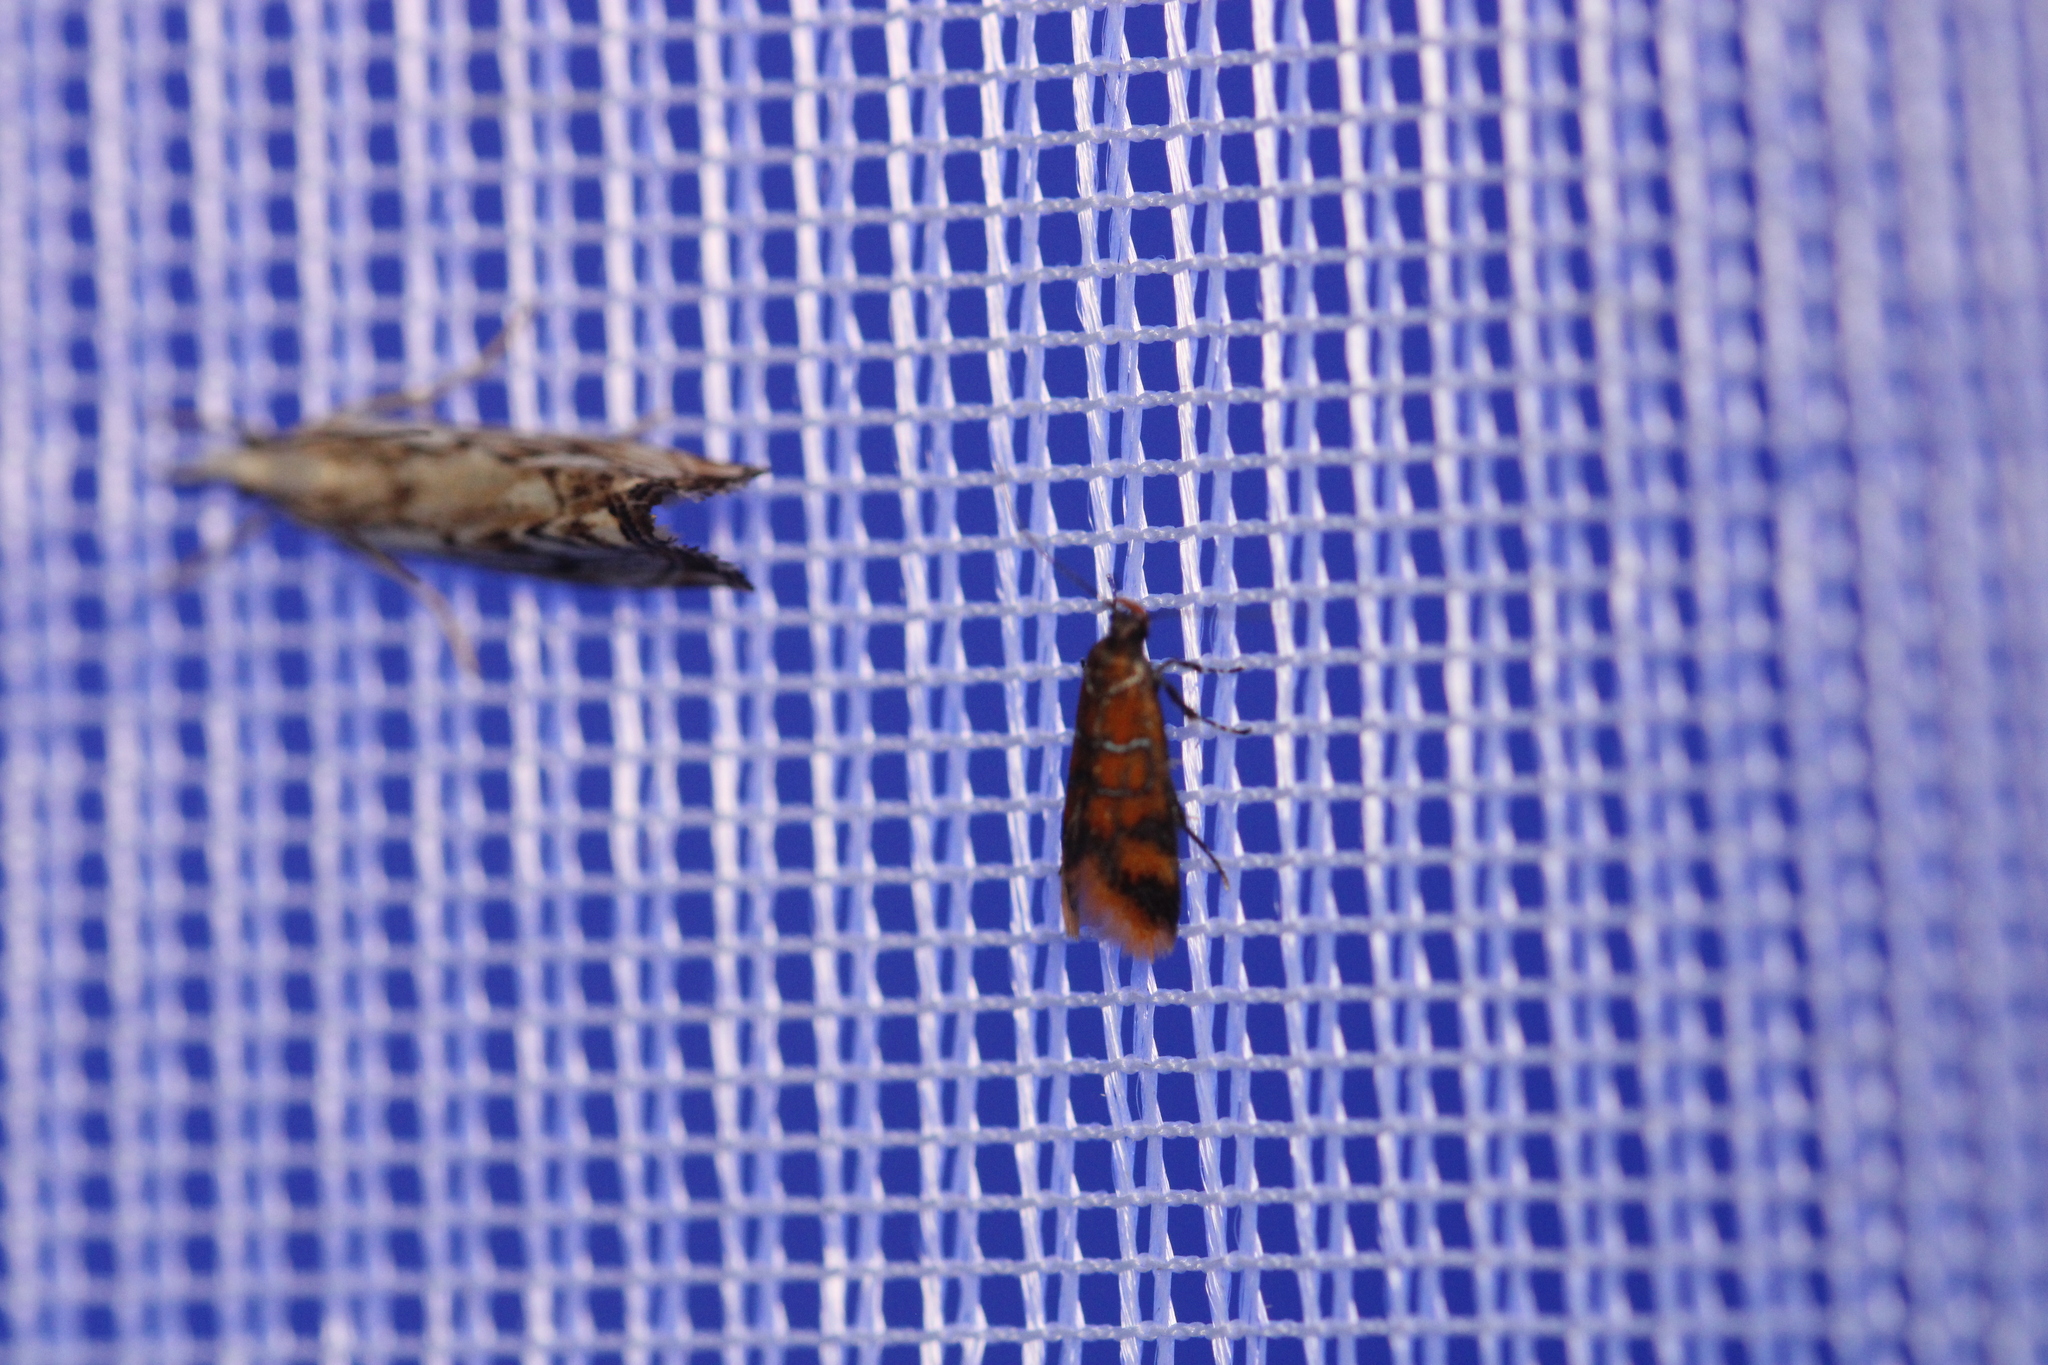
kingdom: Animalia
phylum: Arthropoda
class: Insecta
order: Lepidoptera
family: Oecophoridae
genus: Schiffermuelleria
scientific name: Schiffermuelleria procerella
